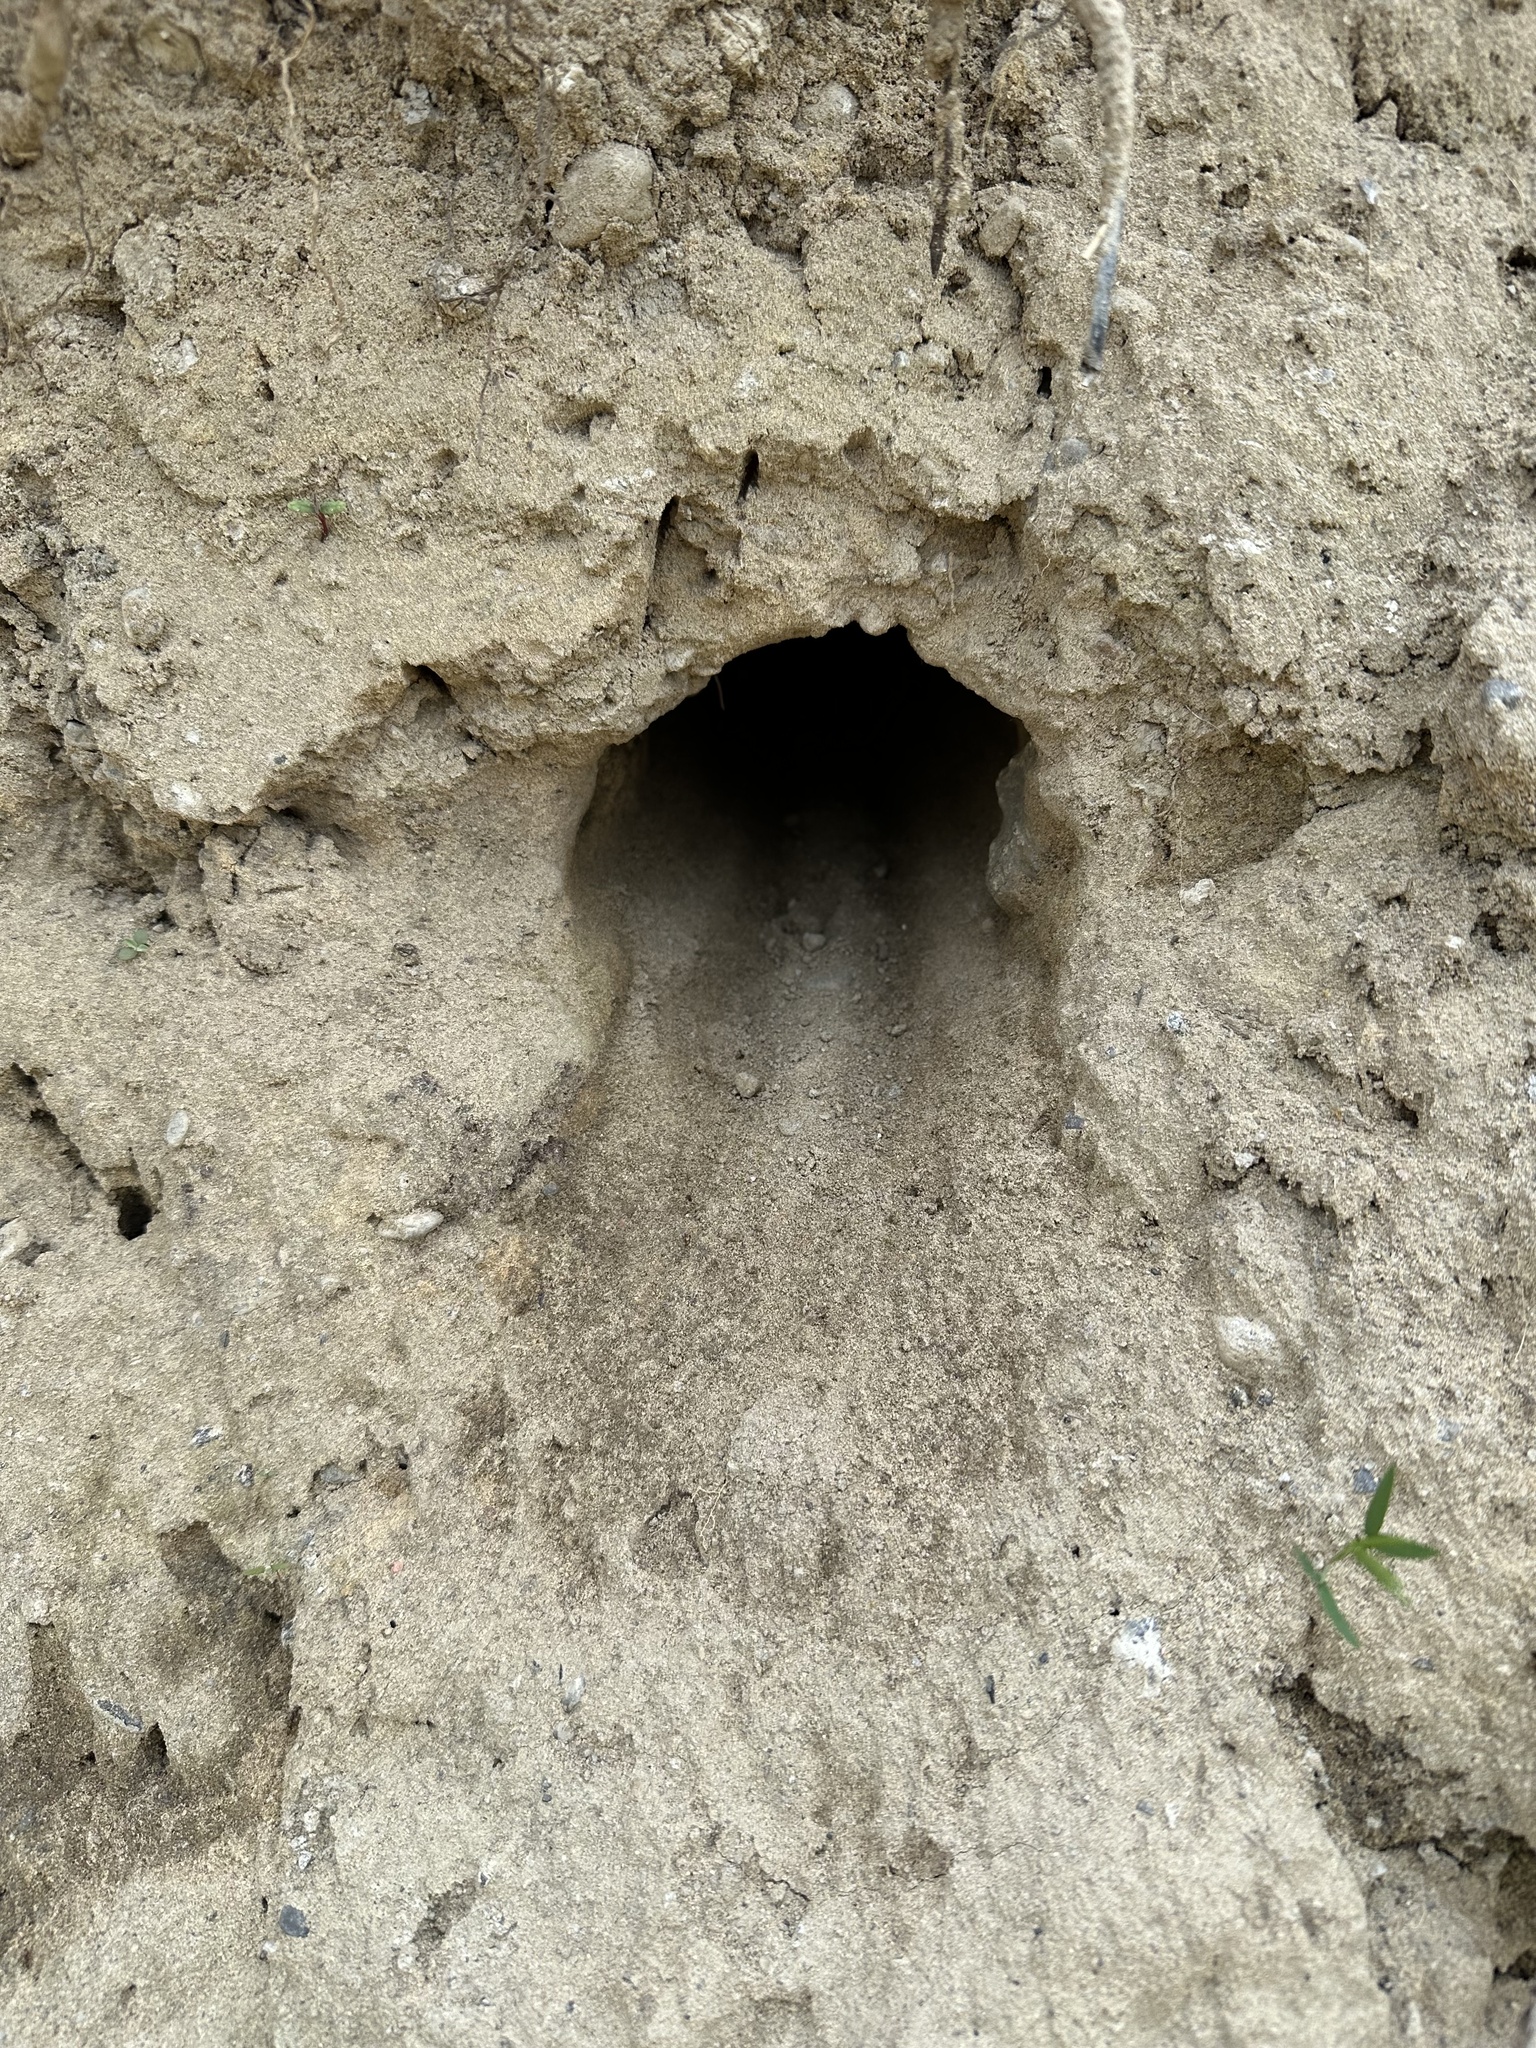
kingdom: Animalia
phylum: Chordata
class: Aves
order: Coraciiformes
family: Alcedinidae
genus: Megaceryle
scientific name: Megaceryle alcyon
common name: Belted kingfisher
